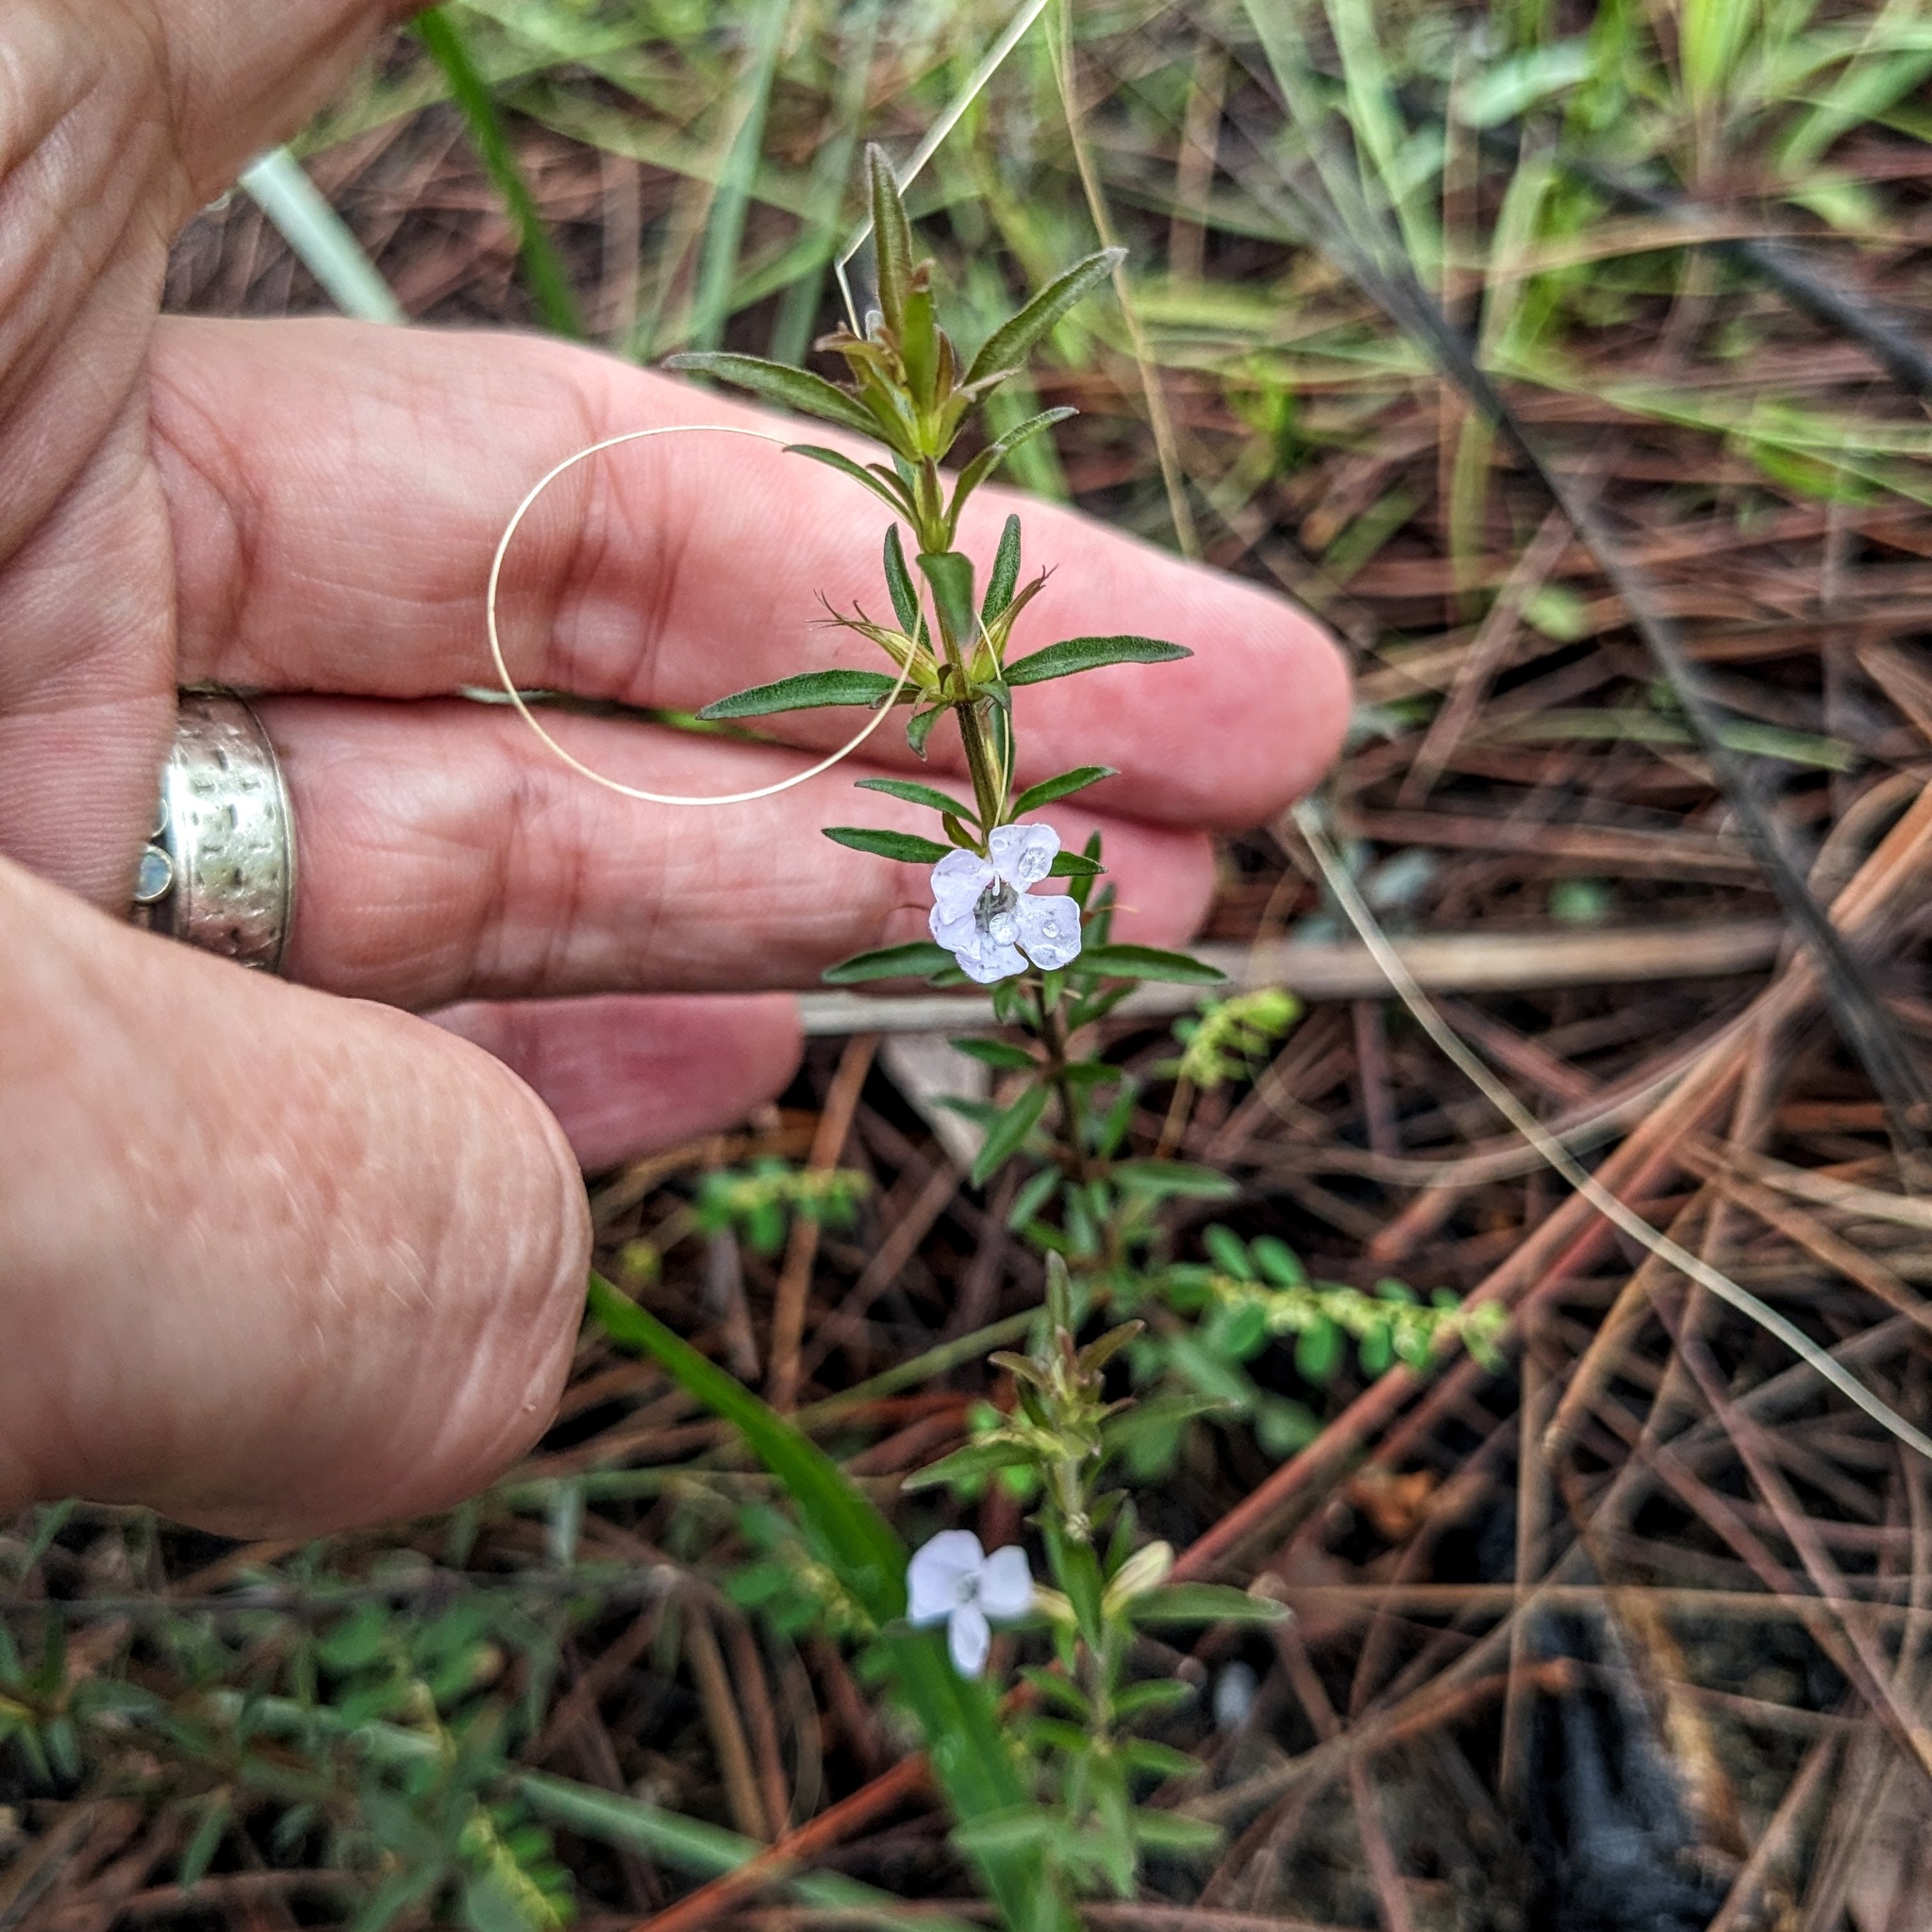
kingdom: Plantae
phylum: Tracheophyta
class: Magnoliopsida
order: Lamiales
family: Acanthaceae
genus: Dyschoriste
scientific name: Dyschoriste angusta
